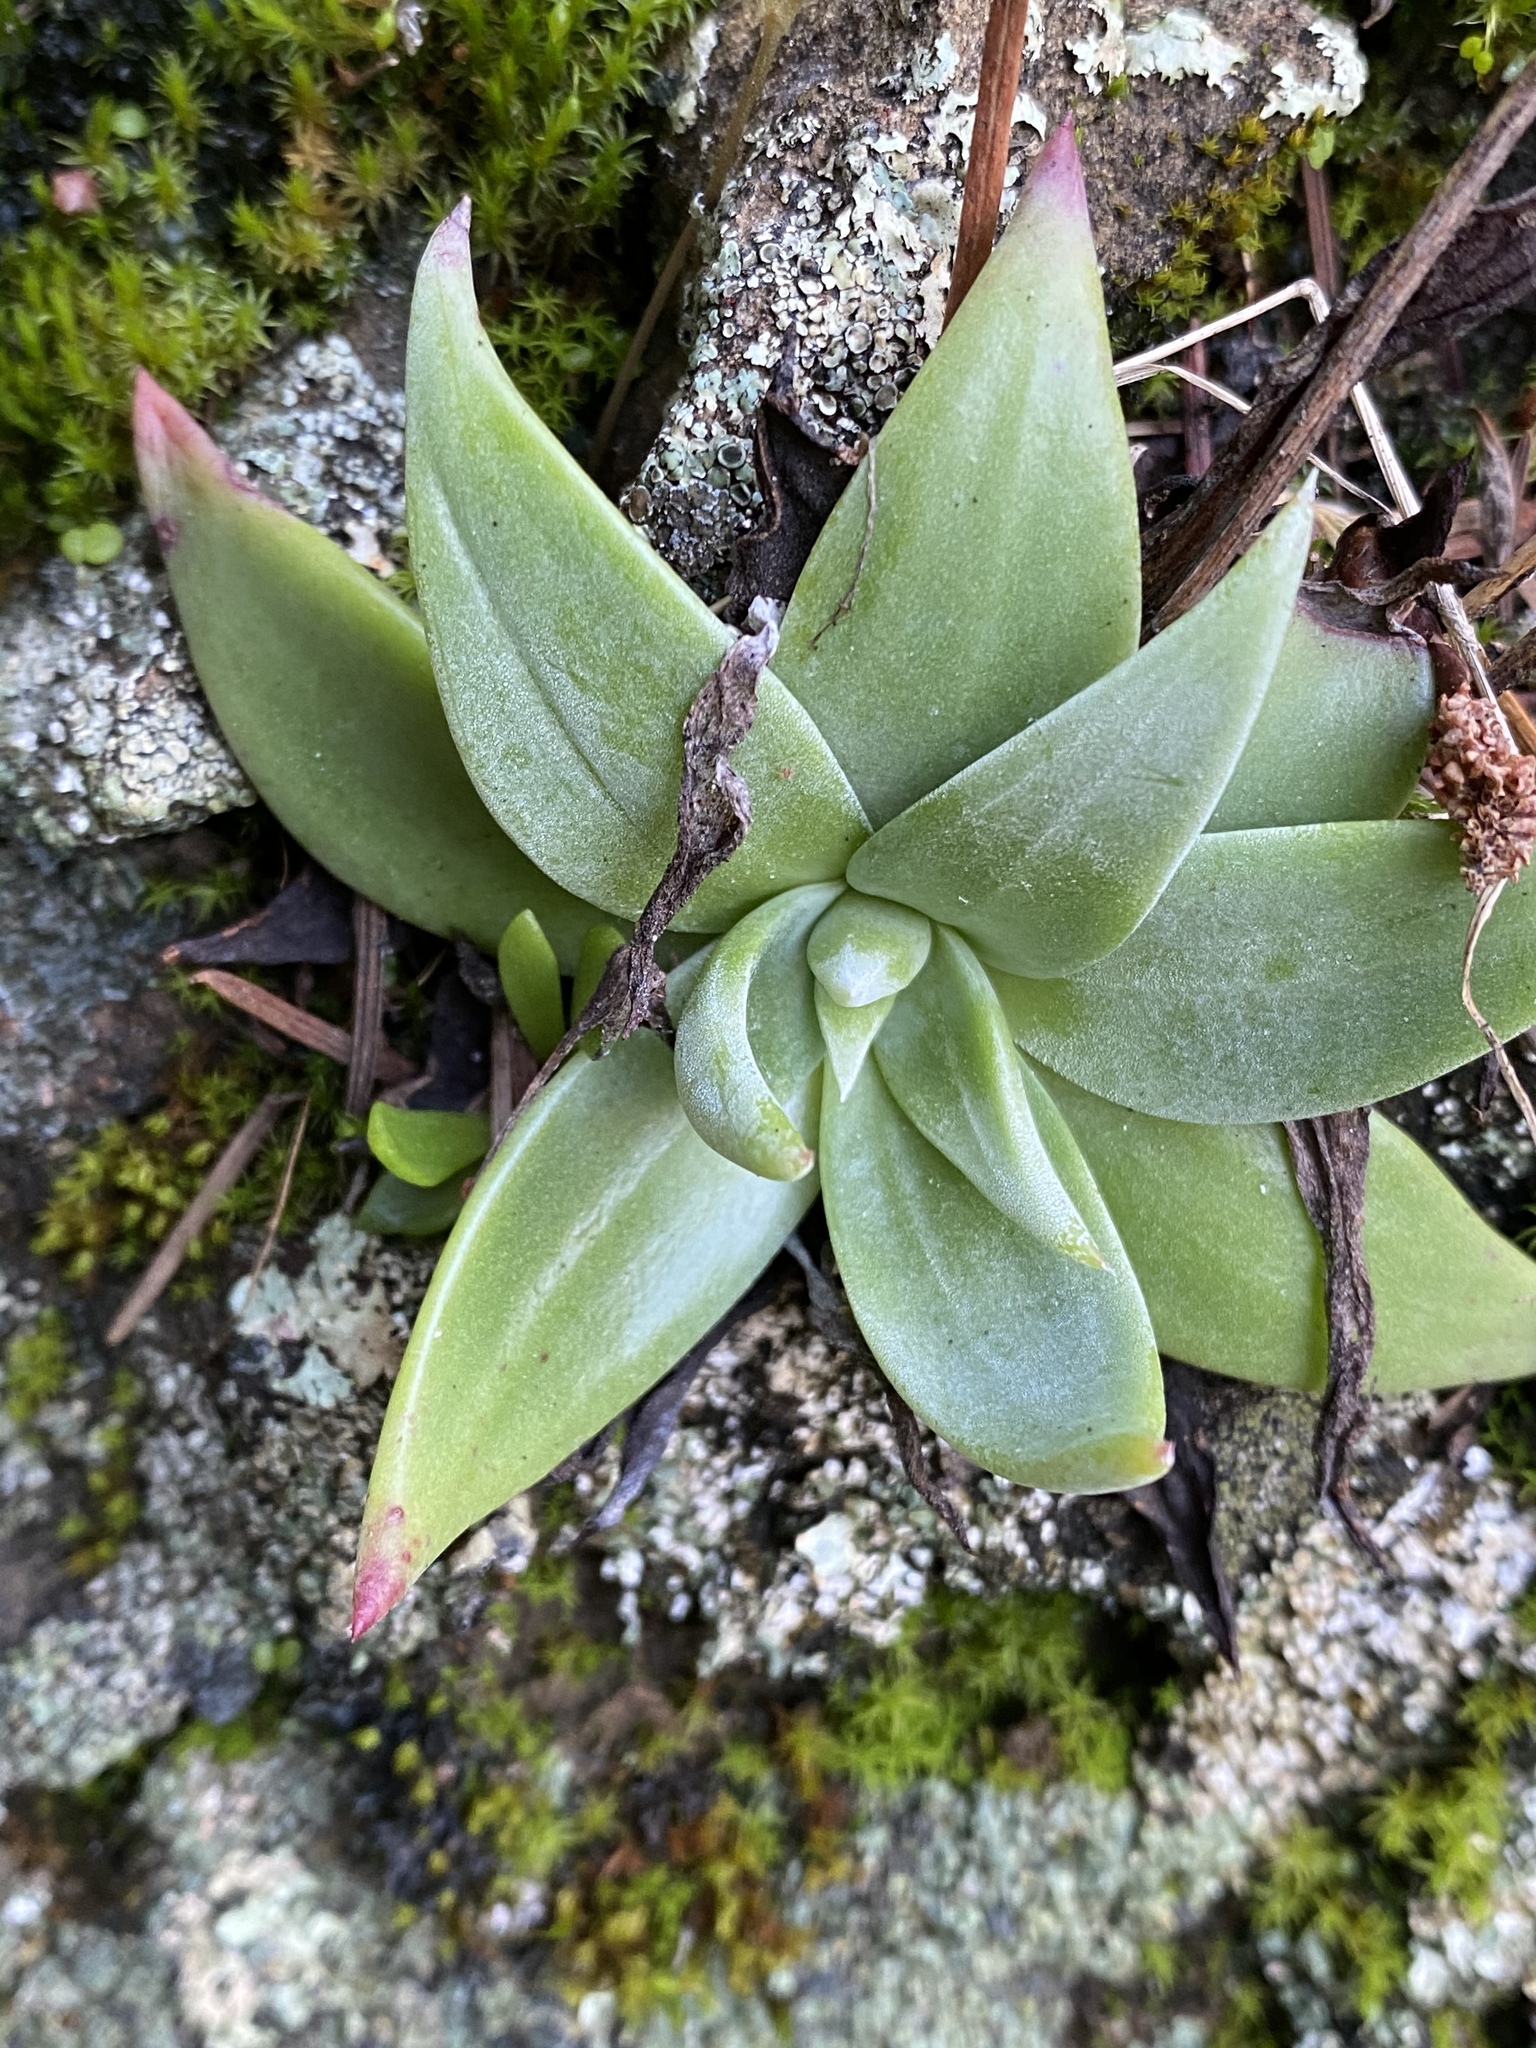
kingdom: Plantae
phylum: Tracheophyta
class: Magnoliopsida
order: Saxifragales
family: Crassulaceae
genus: Dudleya
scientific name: Dudleya cymosa
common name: Canyon dudleya
